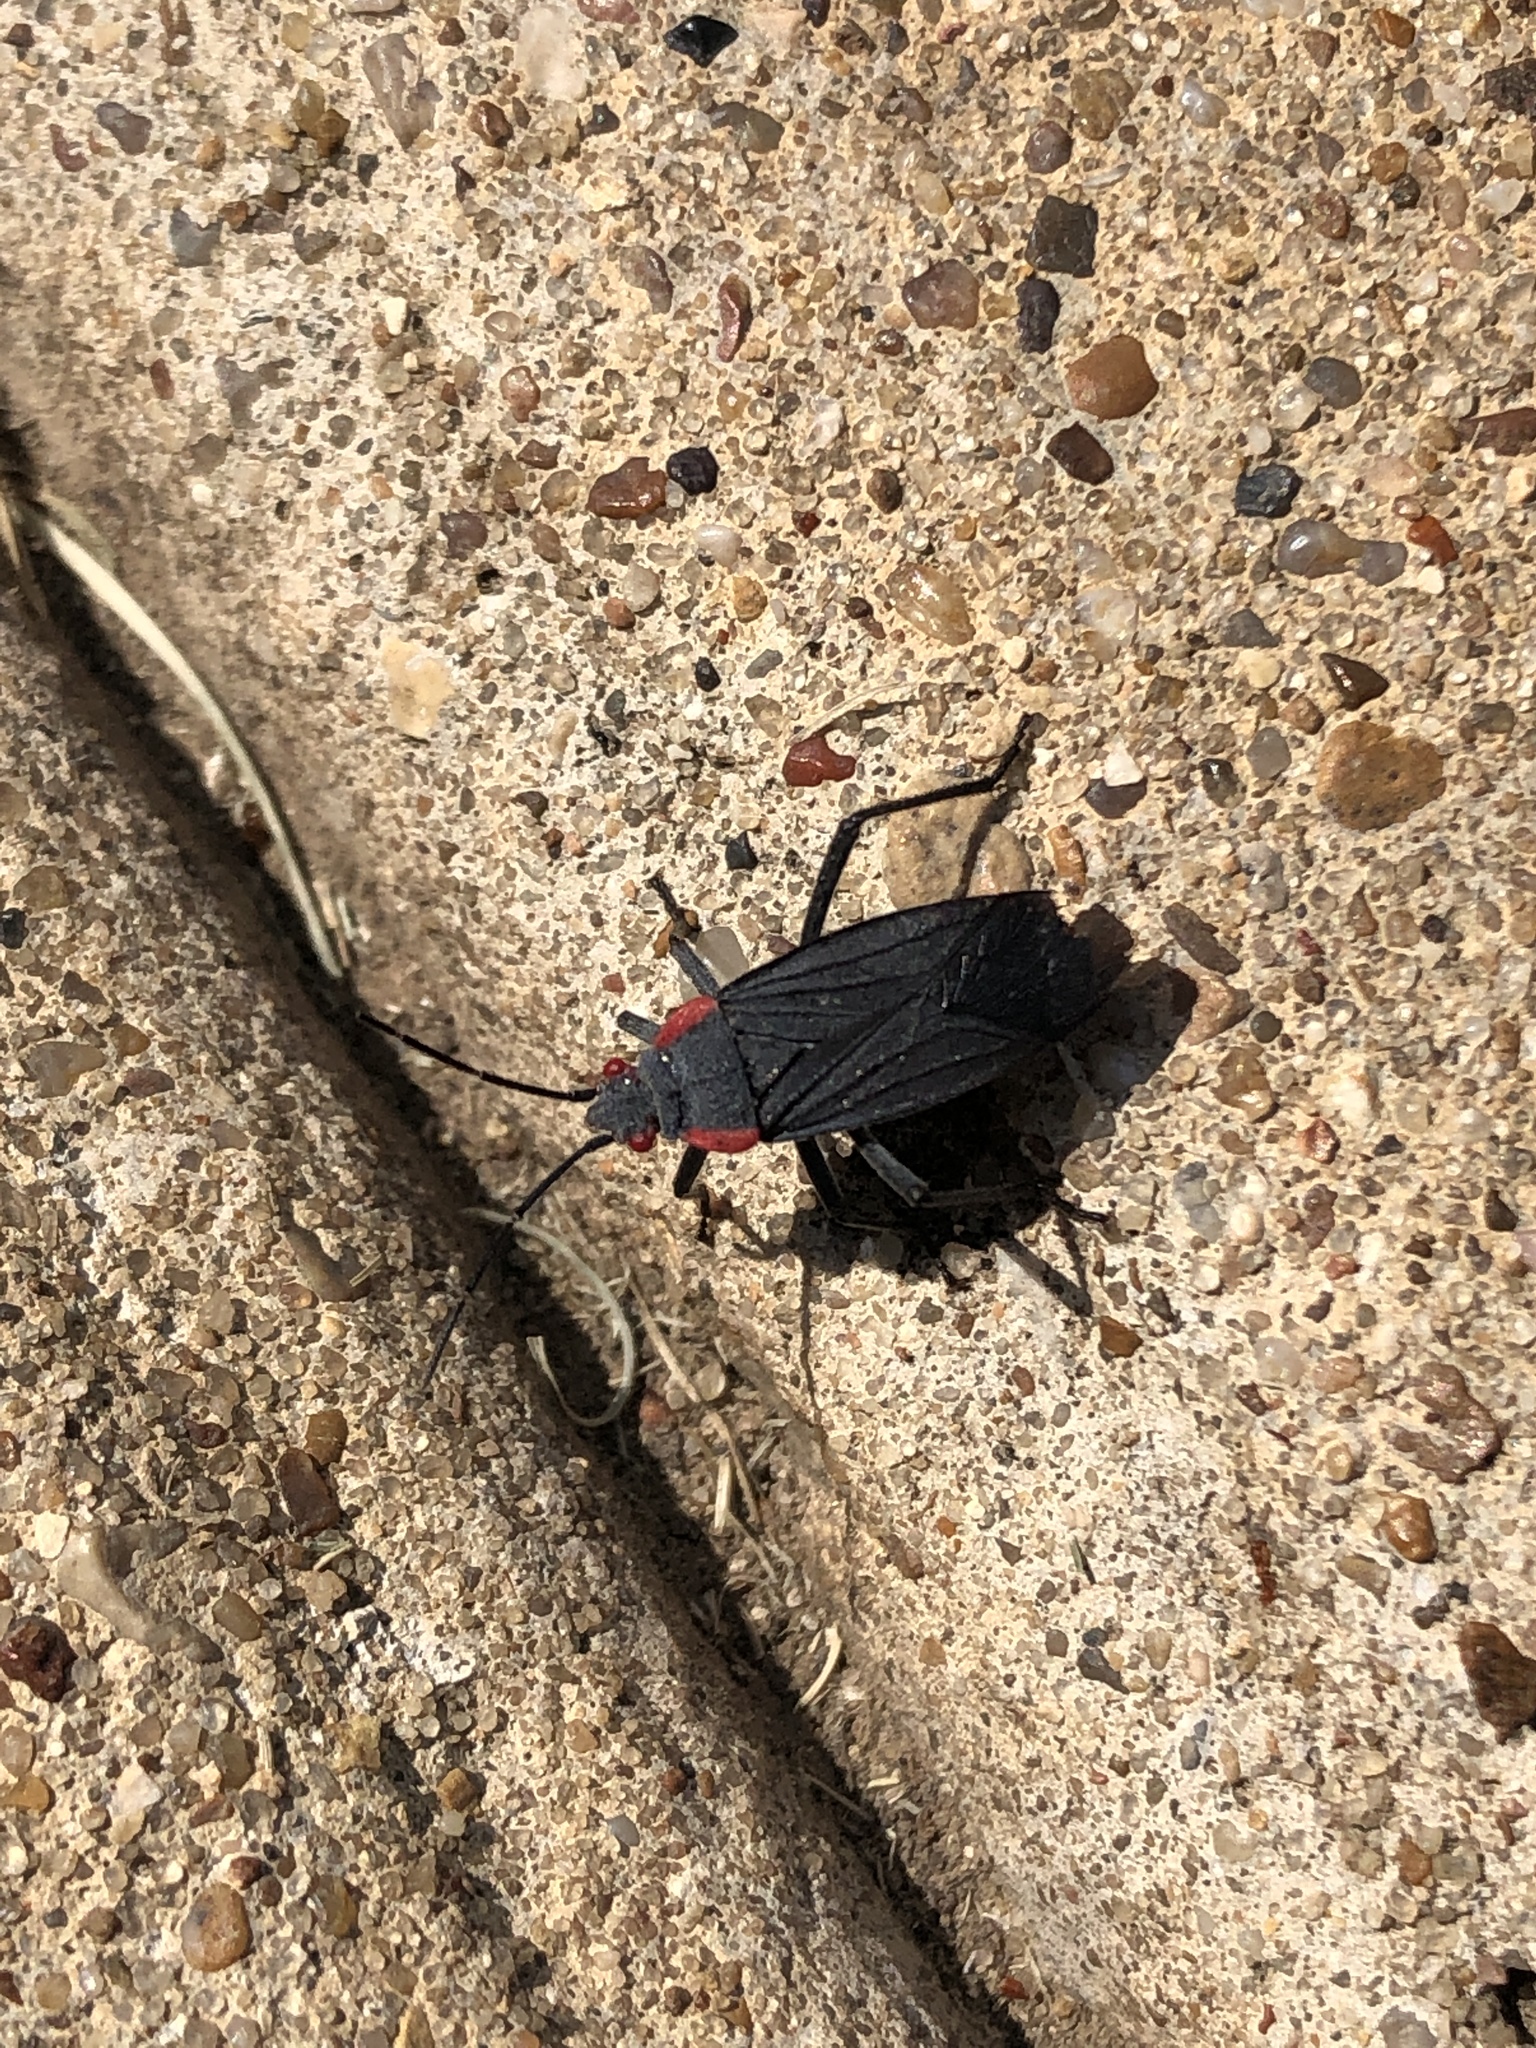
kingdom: Animalia
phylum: Arthropoda
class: Insecta
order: Hemiptera
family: Rhopalidae
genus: Jadera
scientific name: Jadera haematoloma
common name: Red-shouldered bug
